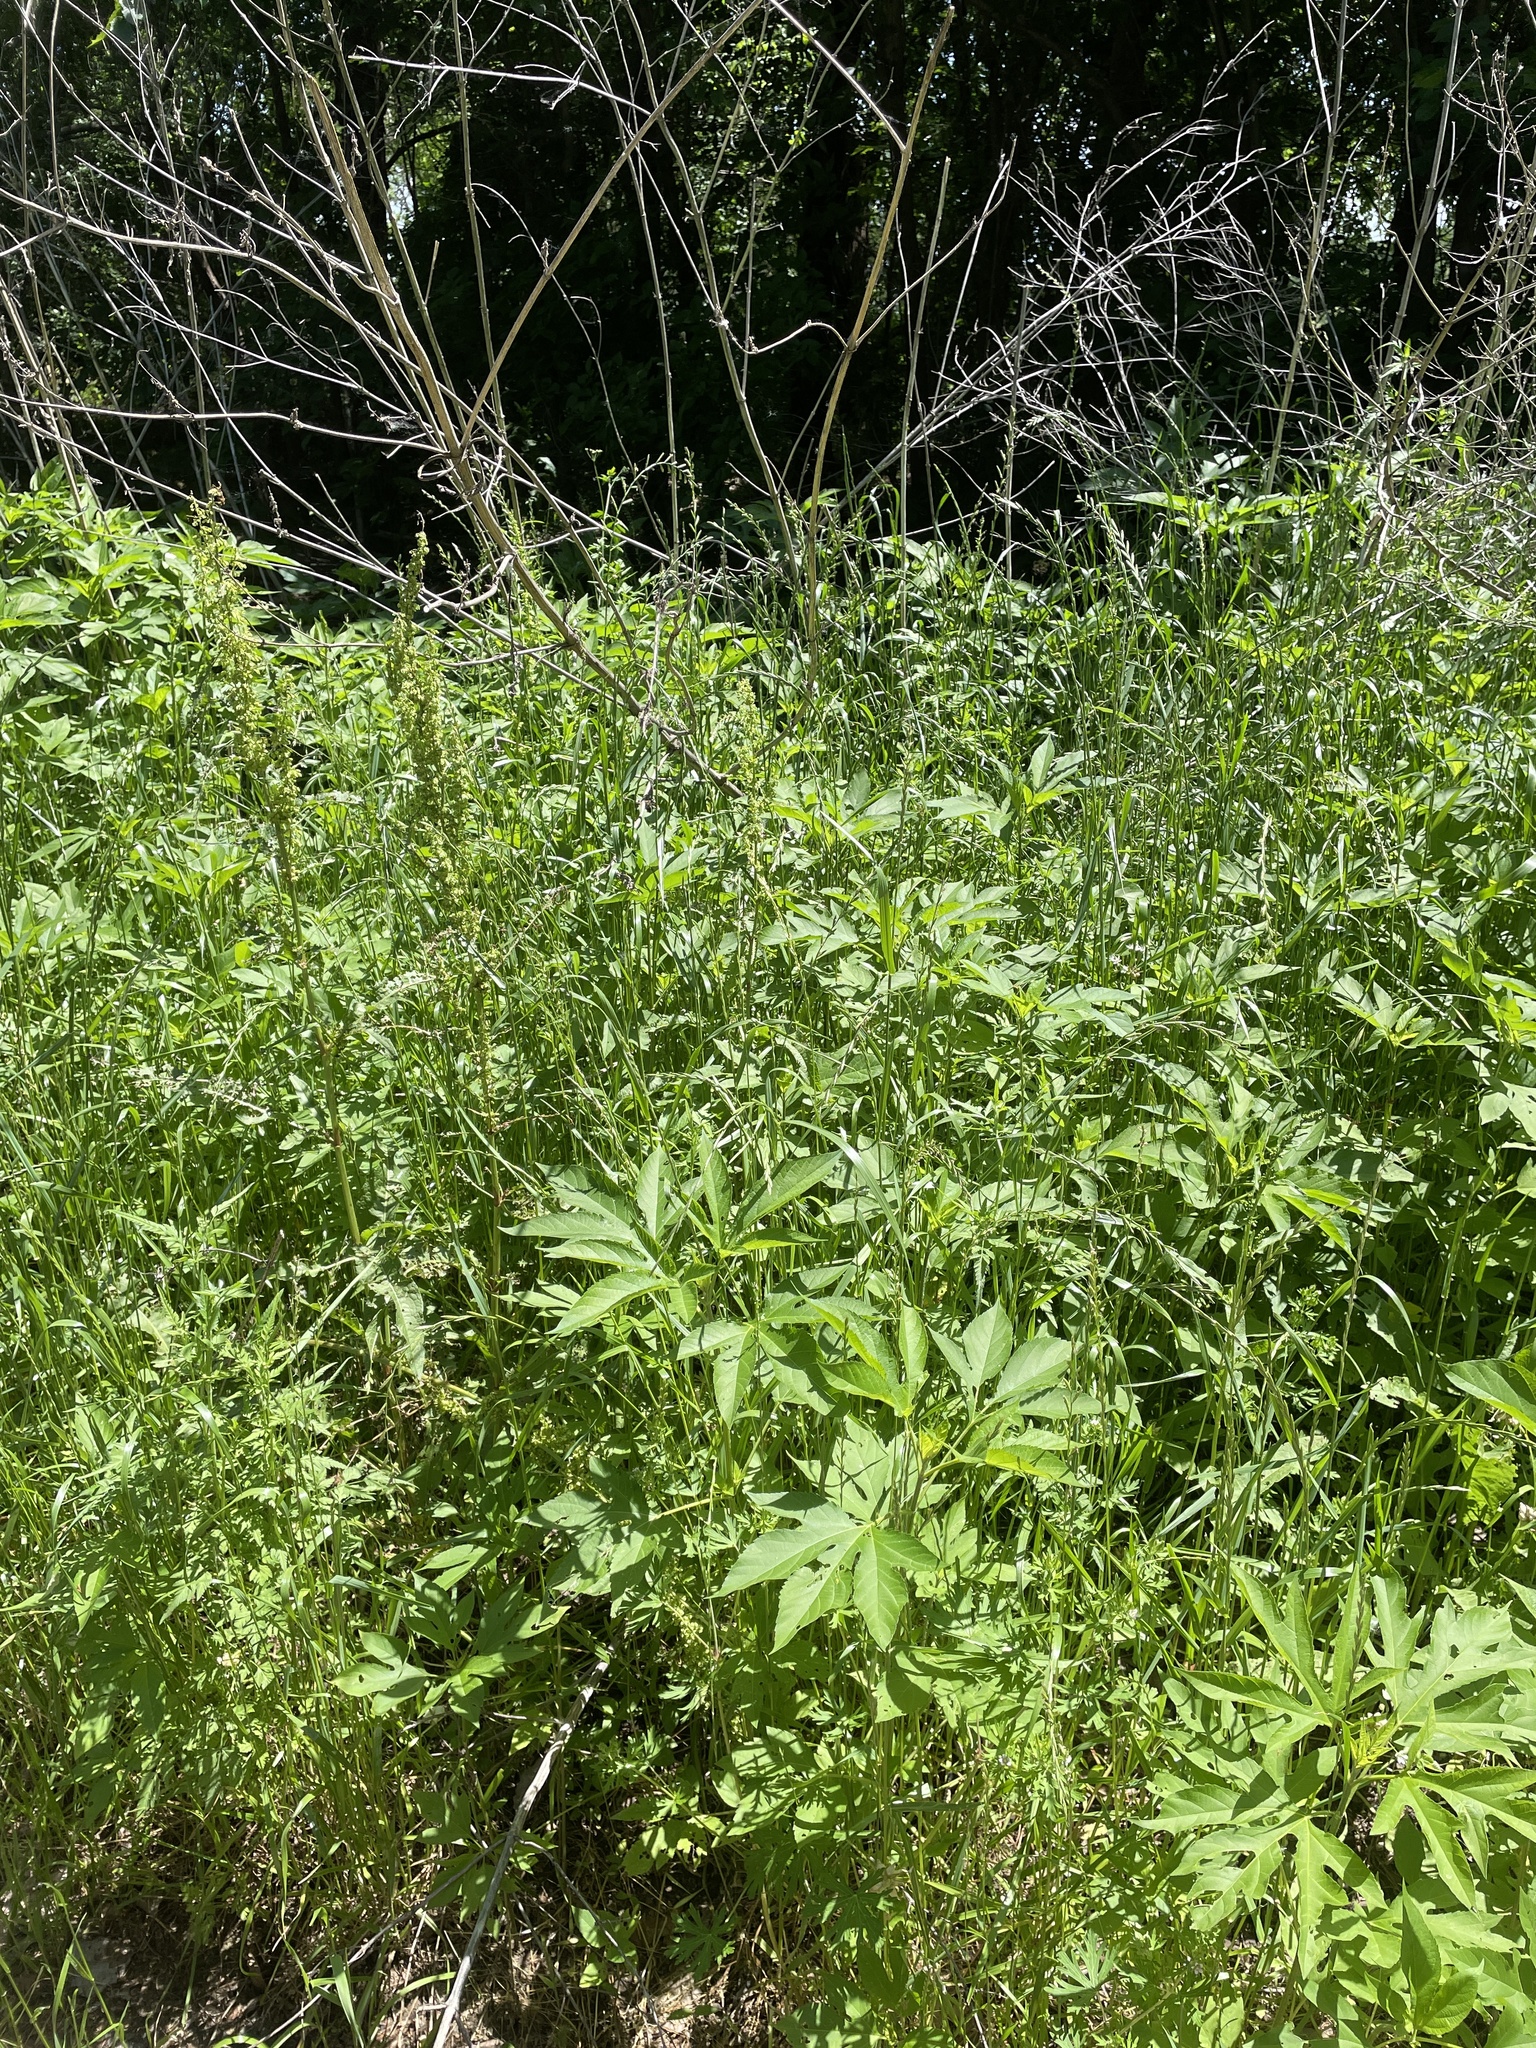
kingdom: Plantae
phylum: Tracheophyta
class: Magnoliopsida
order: Asterales
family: Asteraceae
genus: Ambrosia
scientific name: Ambrosia trifida
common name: Giant ragweed
